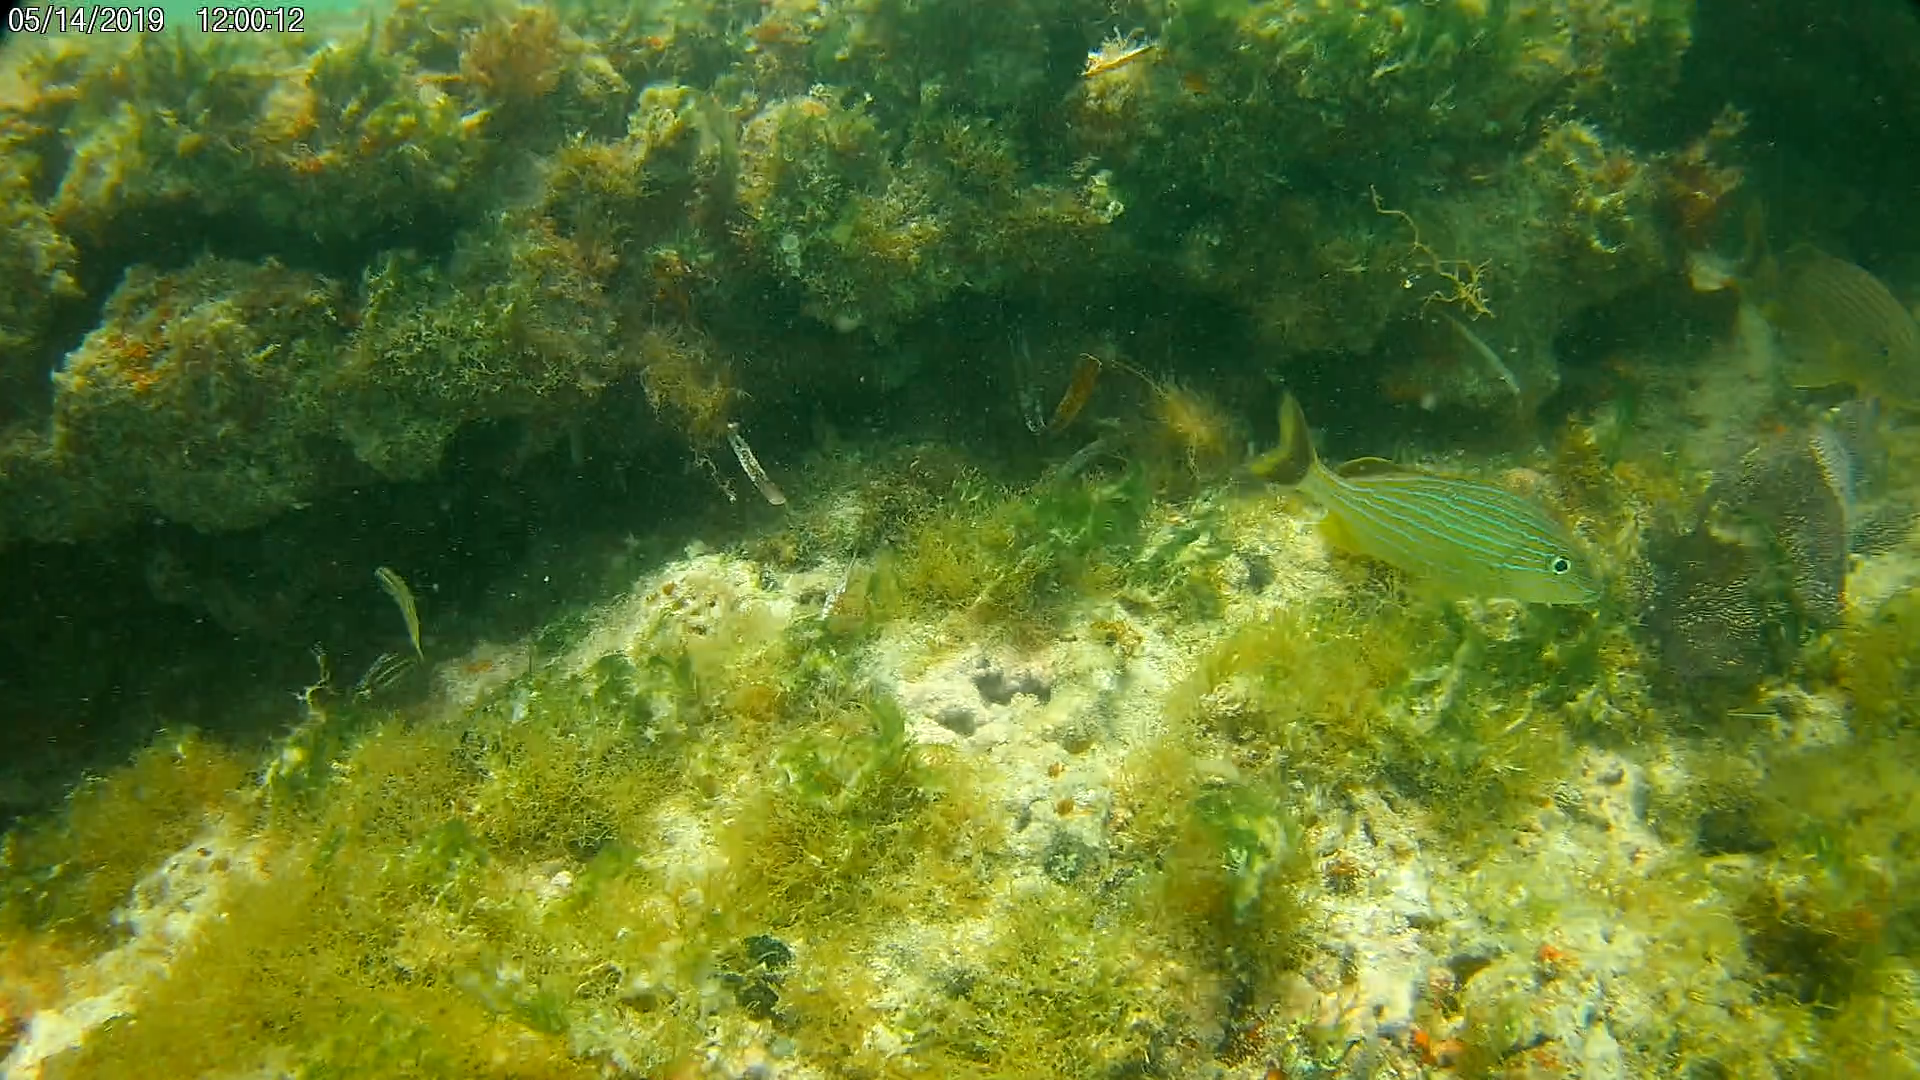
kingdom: Animalia
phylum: Chordata
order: Perciformes
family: Haemulidae
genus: Haemulon
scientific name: Haemulon sciurus
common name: Bluestriped grunt
